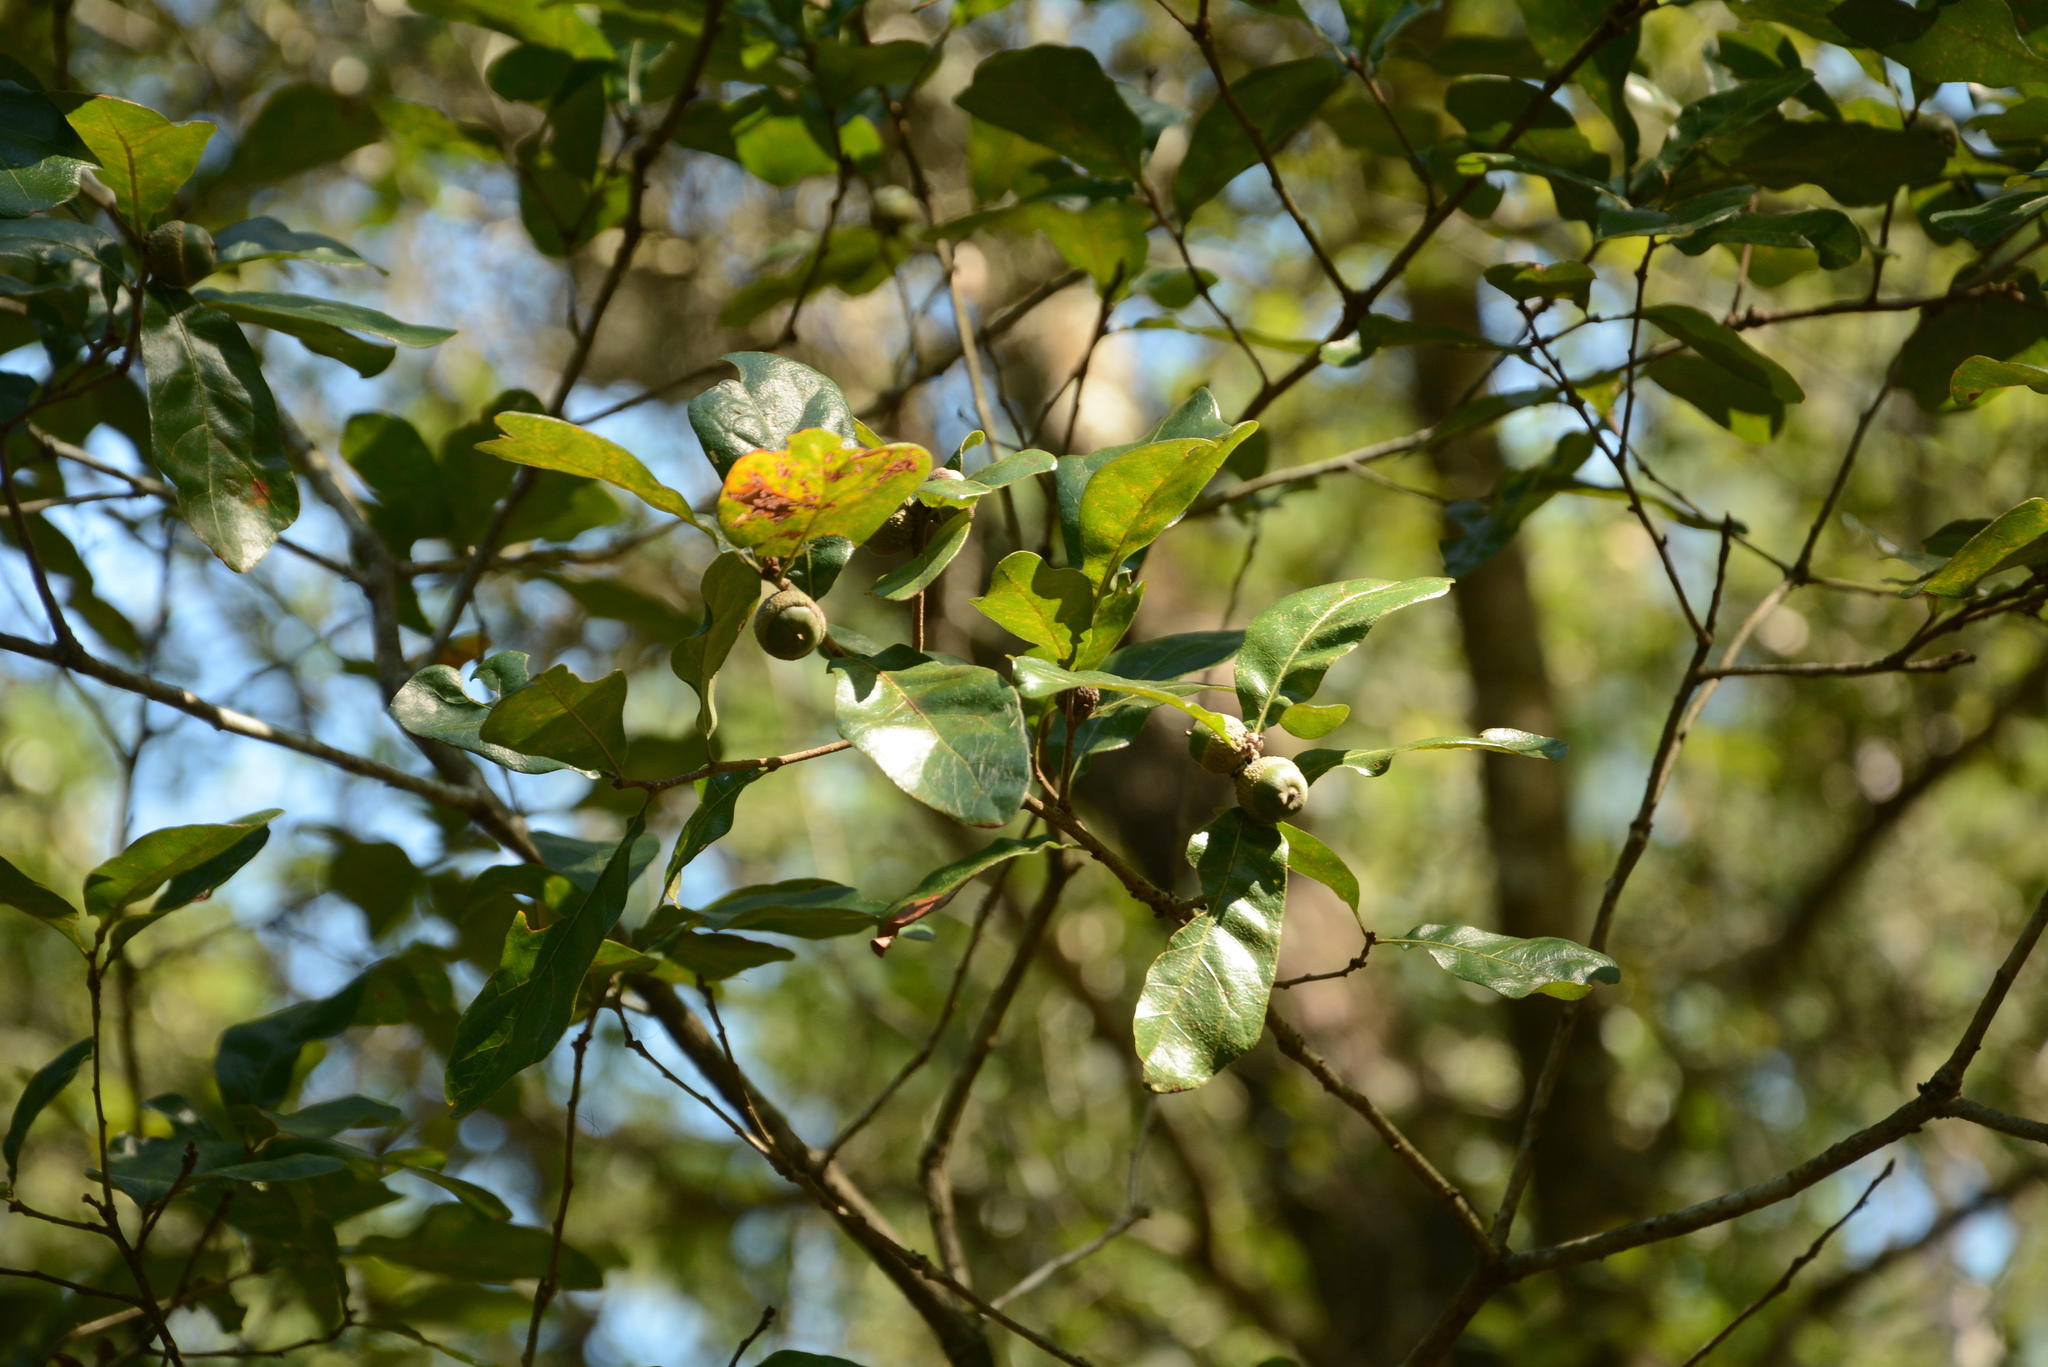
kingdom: Plantae
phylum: Tracheophyta
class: Magnoliopsida
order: Fagales
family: Fagaceae
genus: Quercus
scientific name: Quercus chapmanii
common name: Chapman oak
